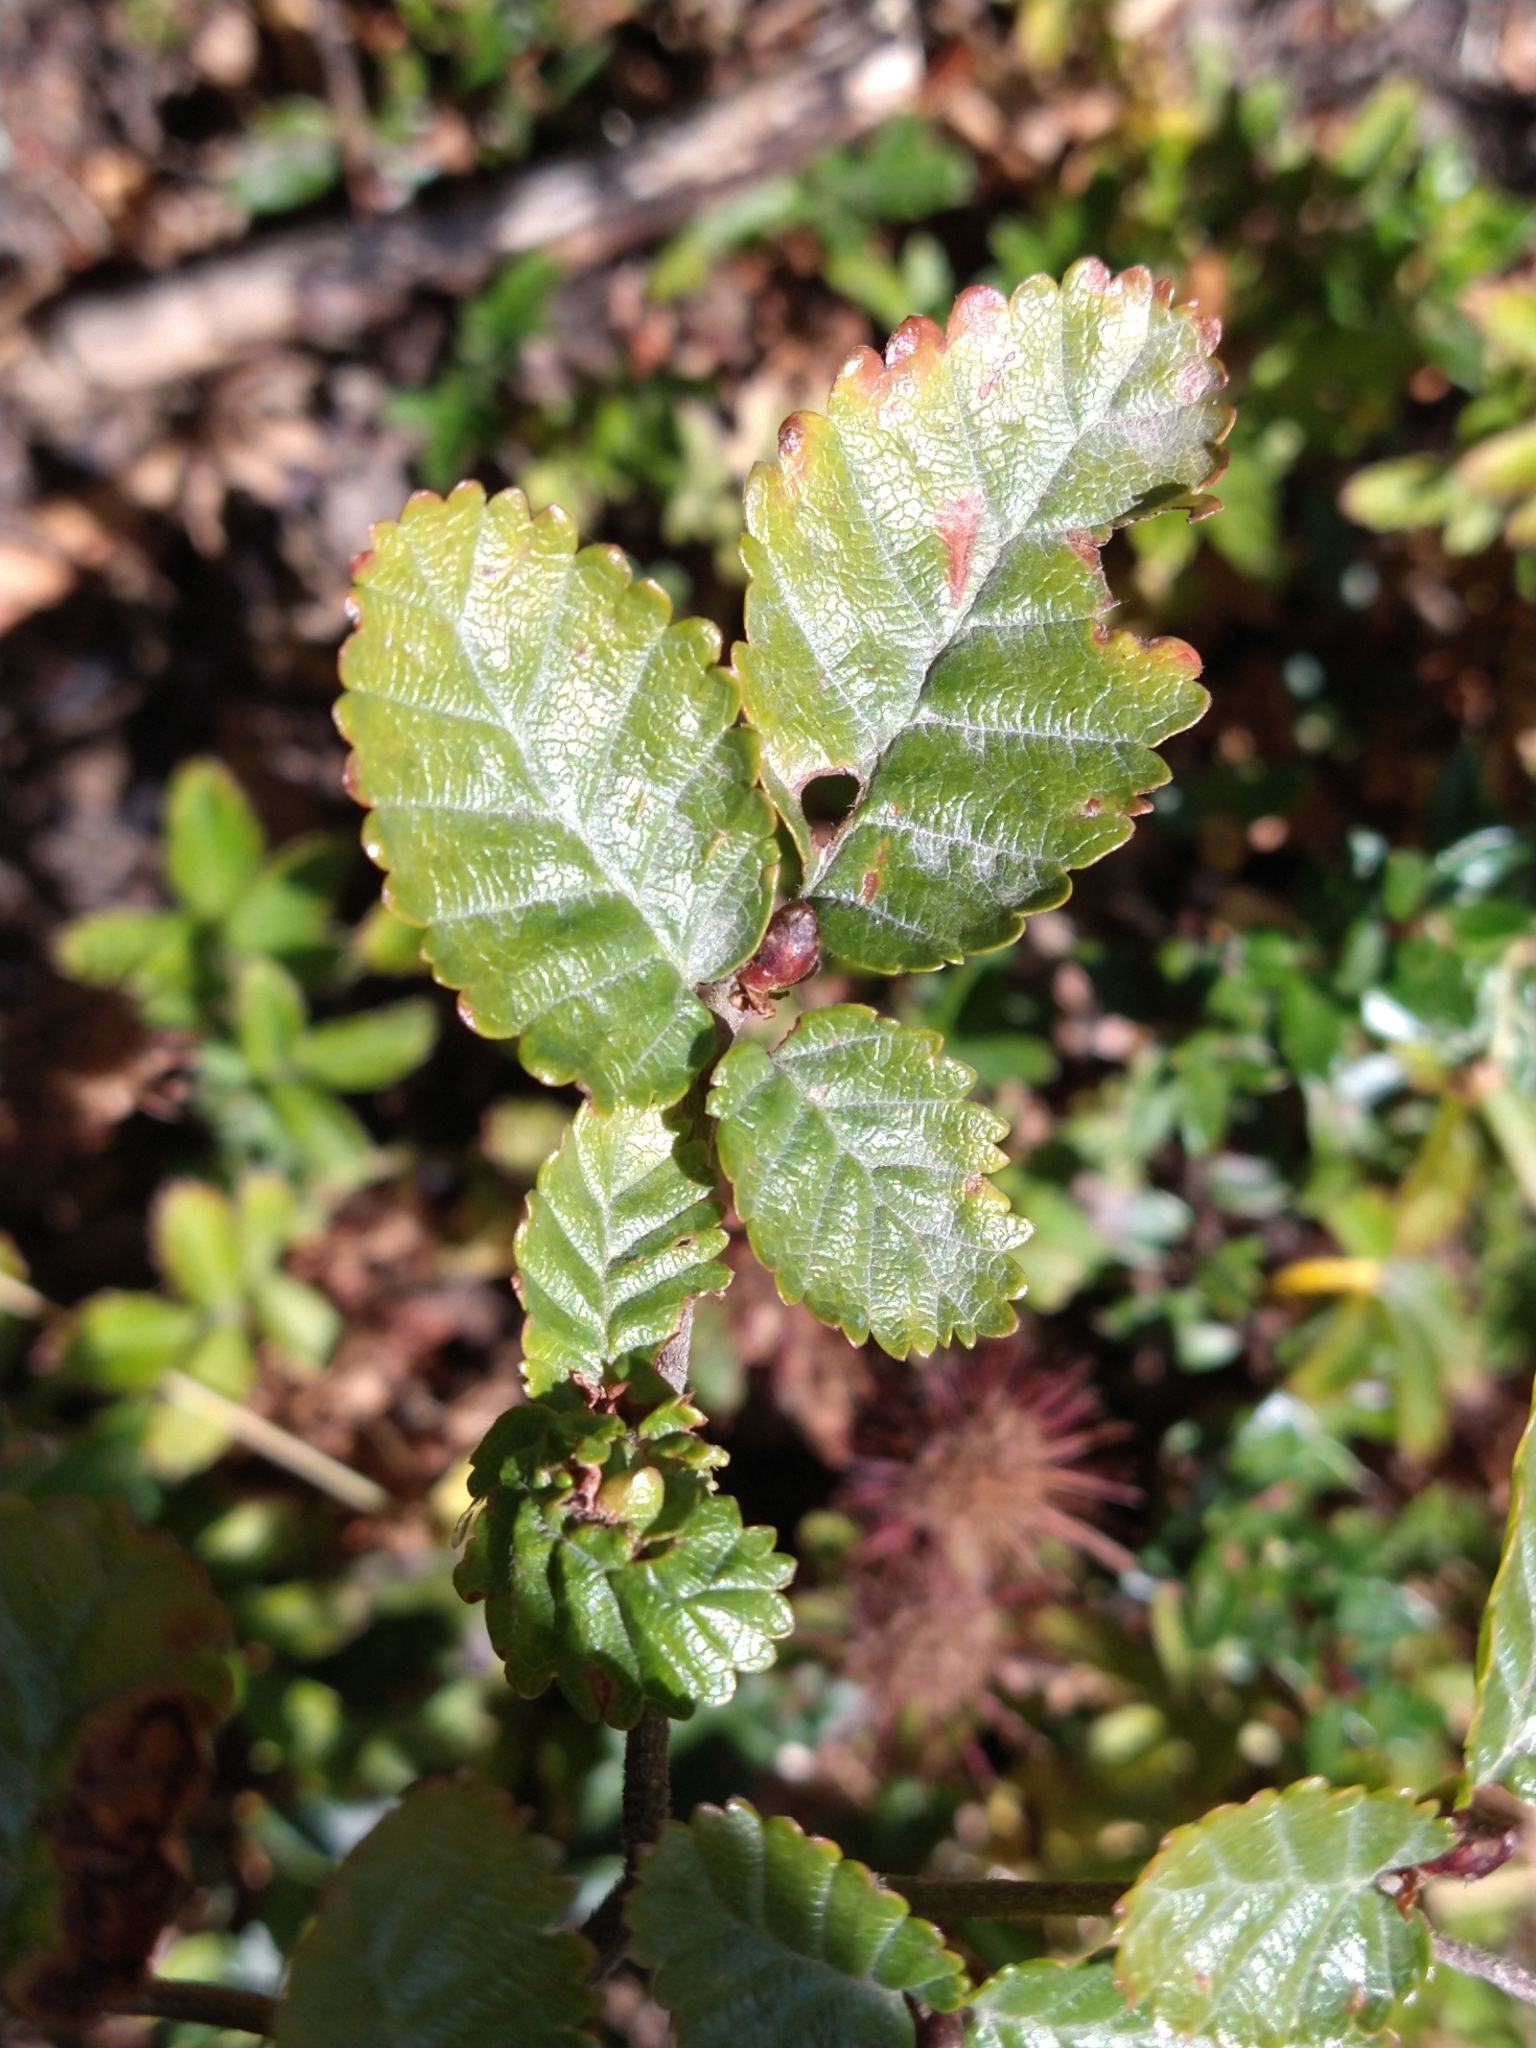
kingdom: Plantae
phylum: Tracheophyta
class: Magnoliopsida
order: Fagales
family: Nothofagaceae
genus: Nothofagus
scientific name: Nothofagus pumilio
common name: Lenga beech
